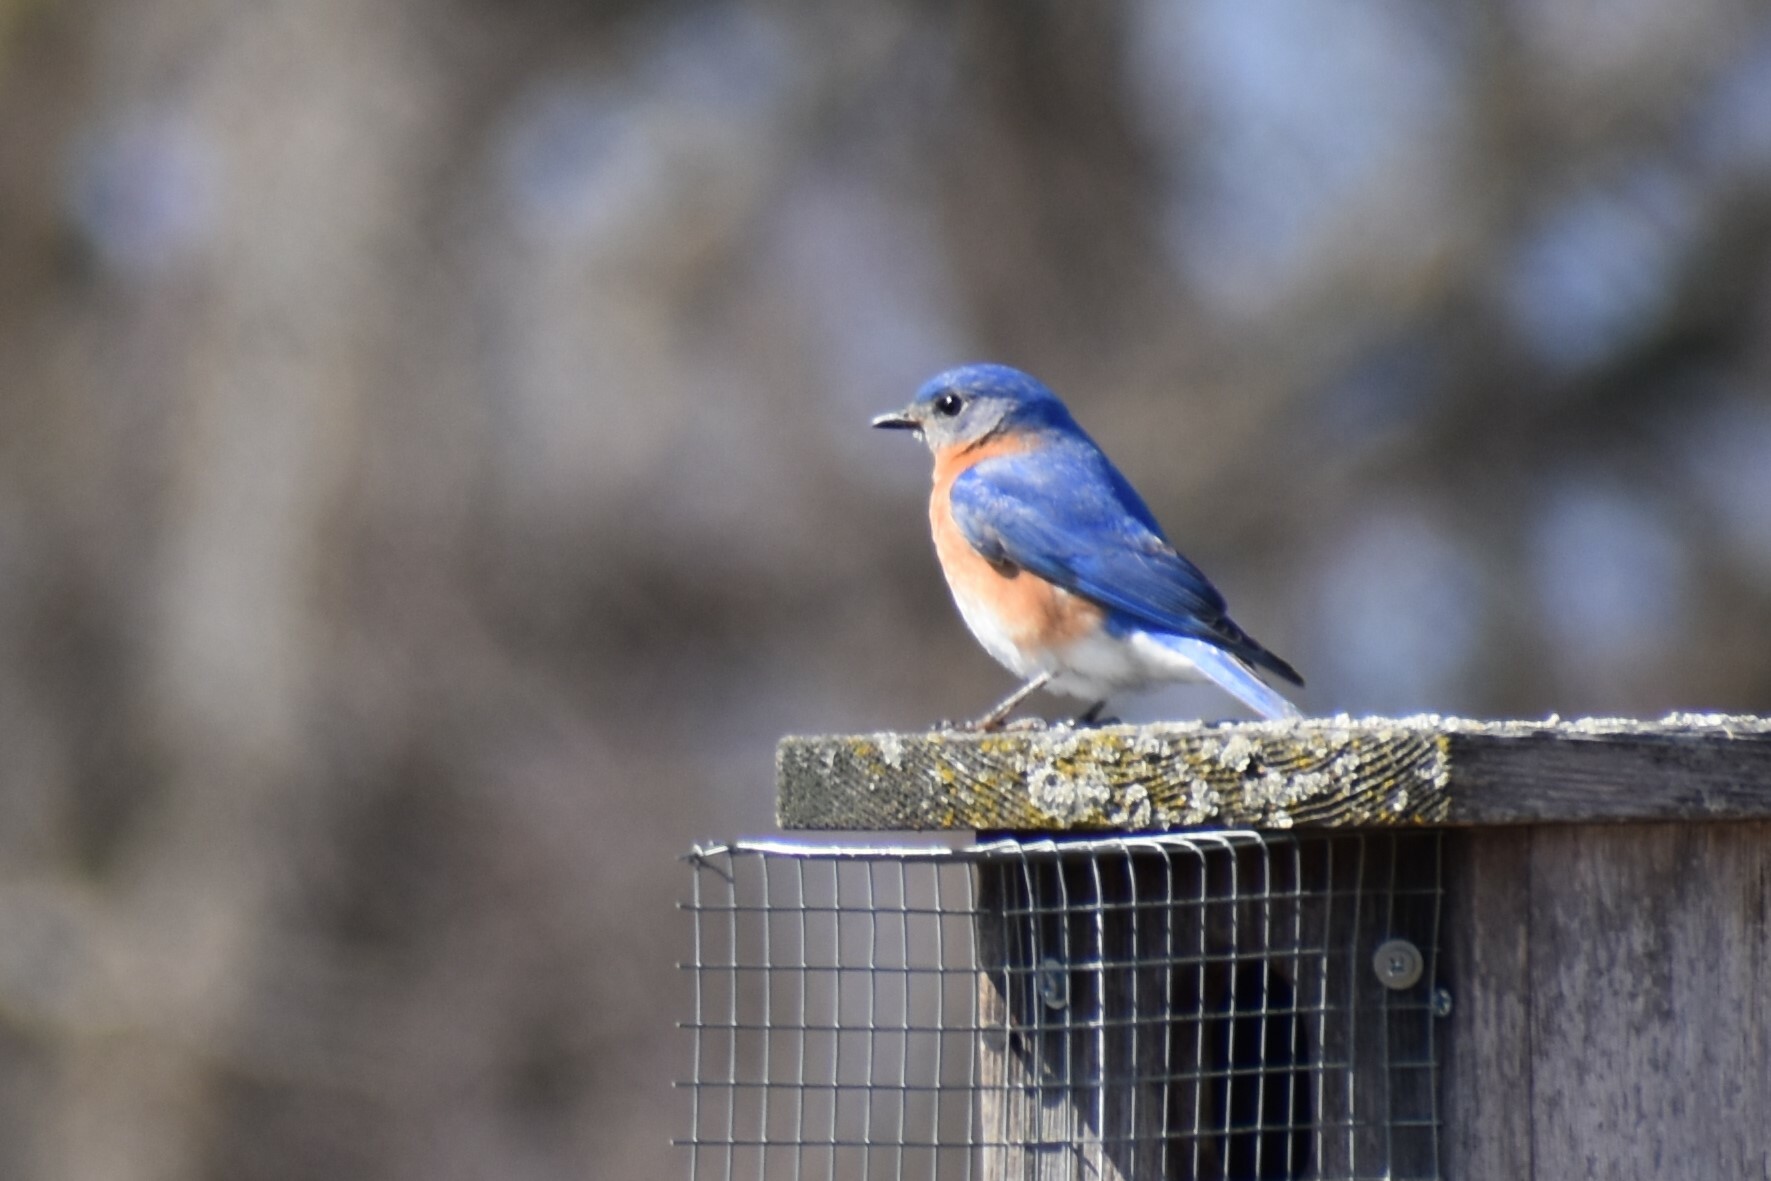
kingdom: Animalia
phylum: Chordata
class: Aves
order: Passeriformes
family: Turdidae
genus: Sialia
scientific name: Sialia sialis
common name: Eastern bluebird
